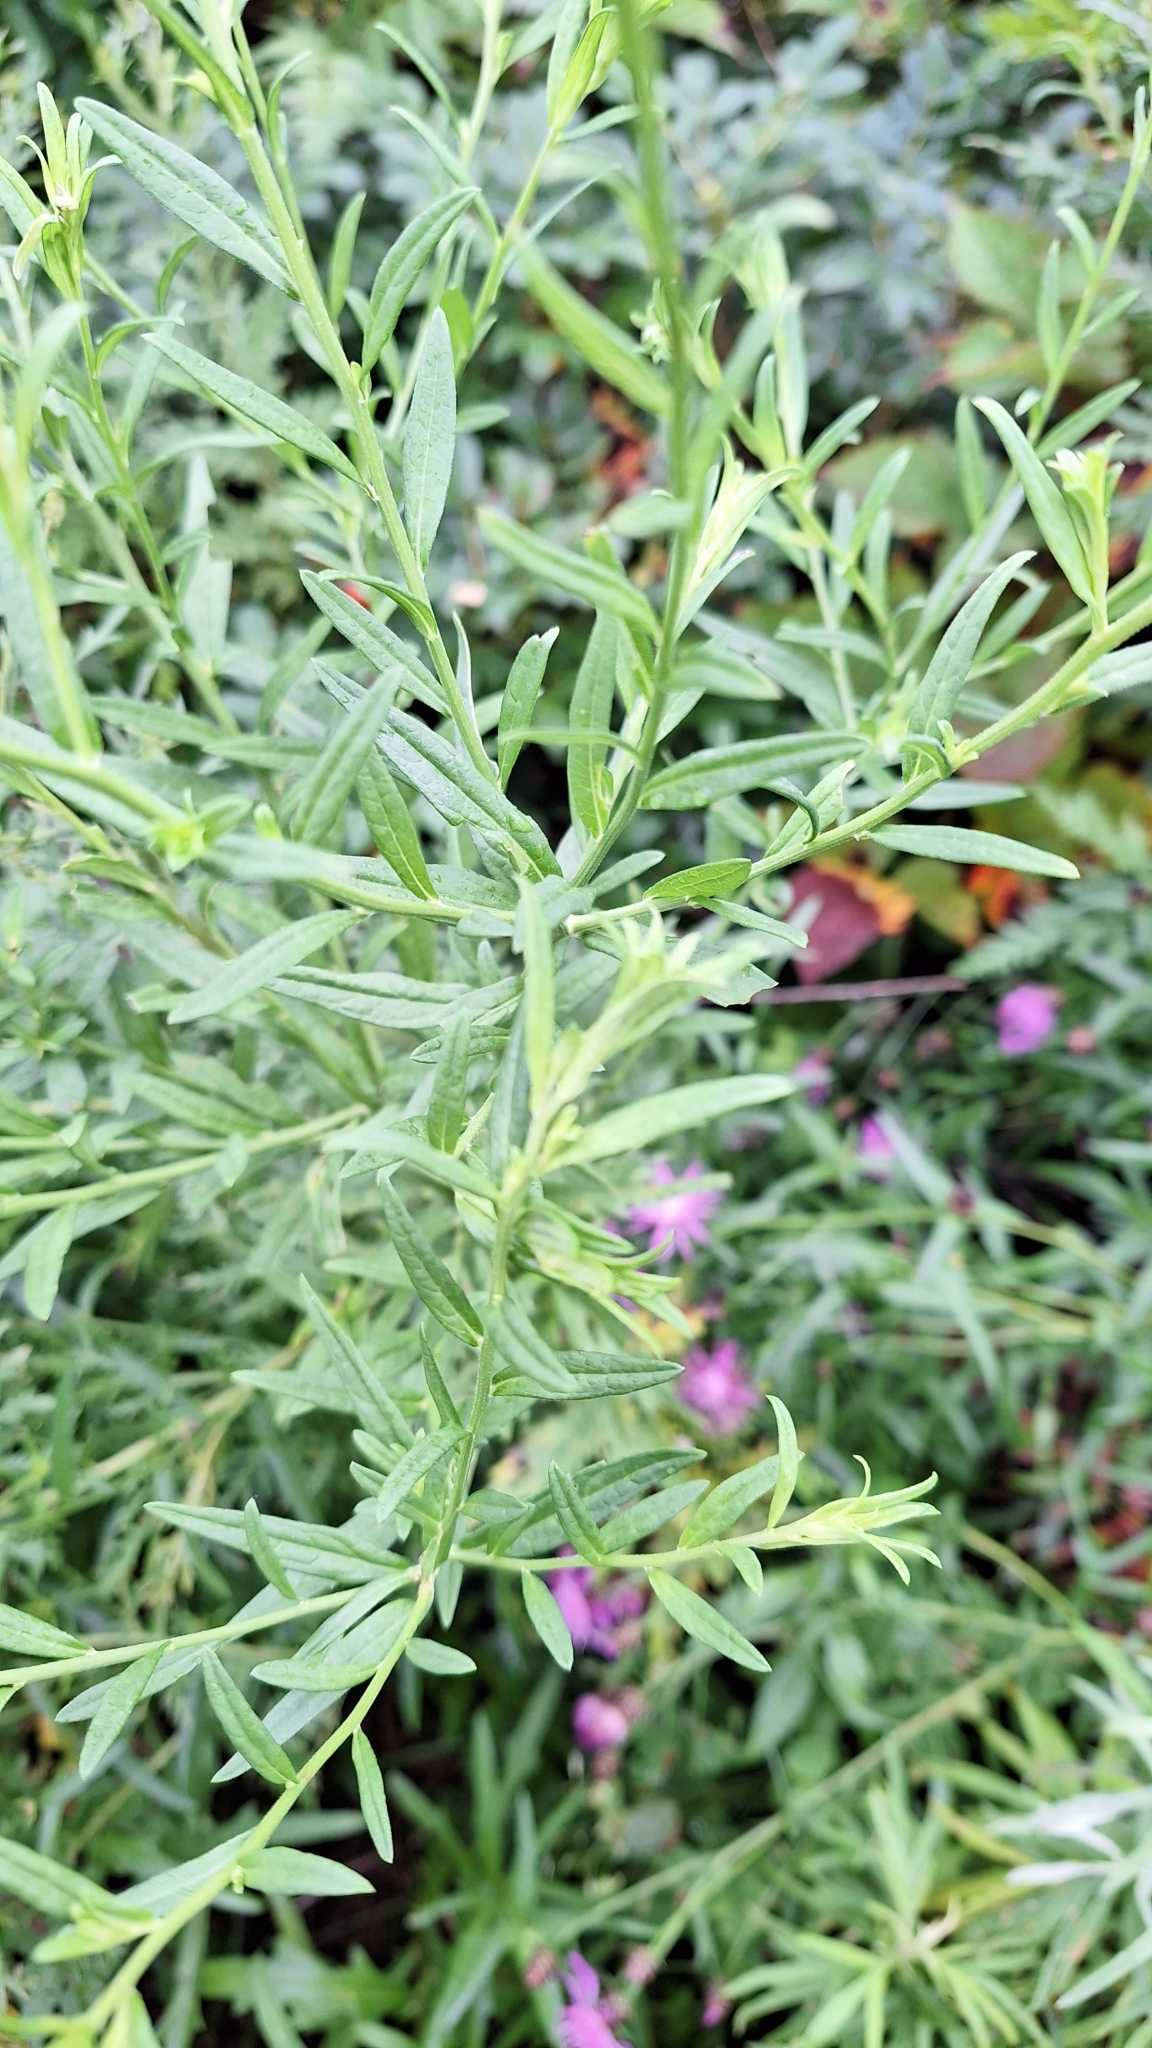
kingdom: Plantae
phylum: Tracheophyta
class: Magnoliopsida
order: Asterales
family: Asteraceae
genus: Kalimeris
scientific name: Kalimeris incisa
